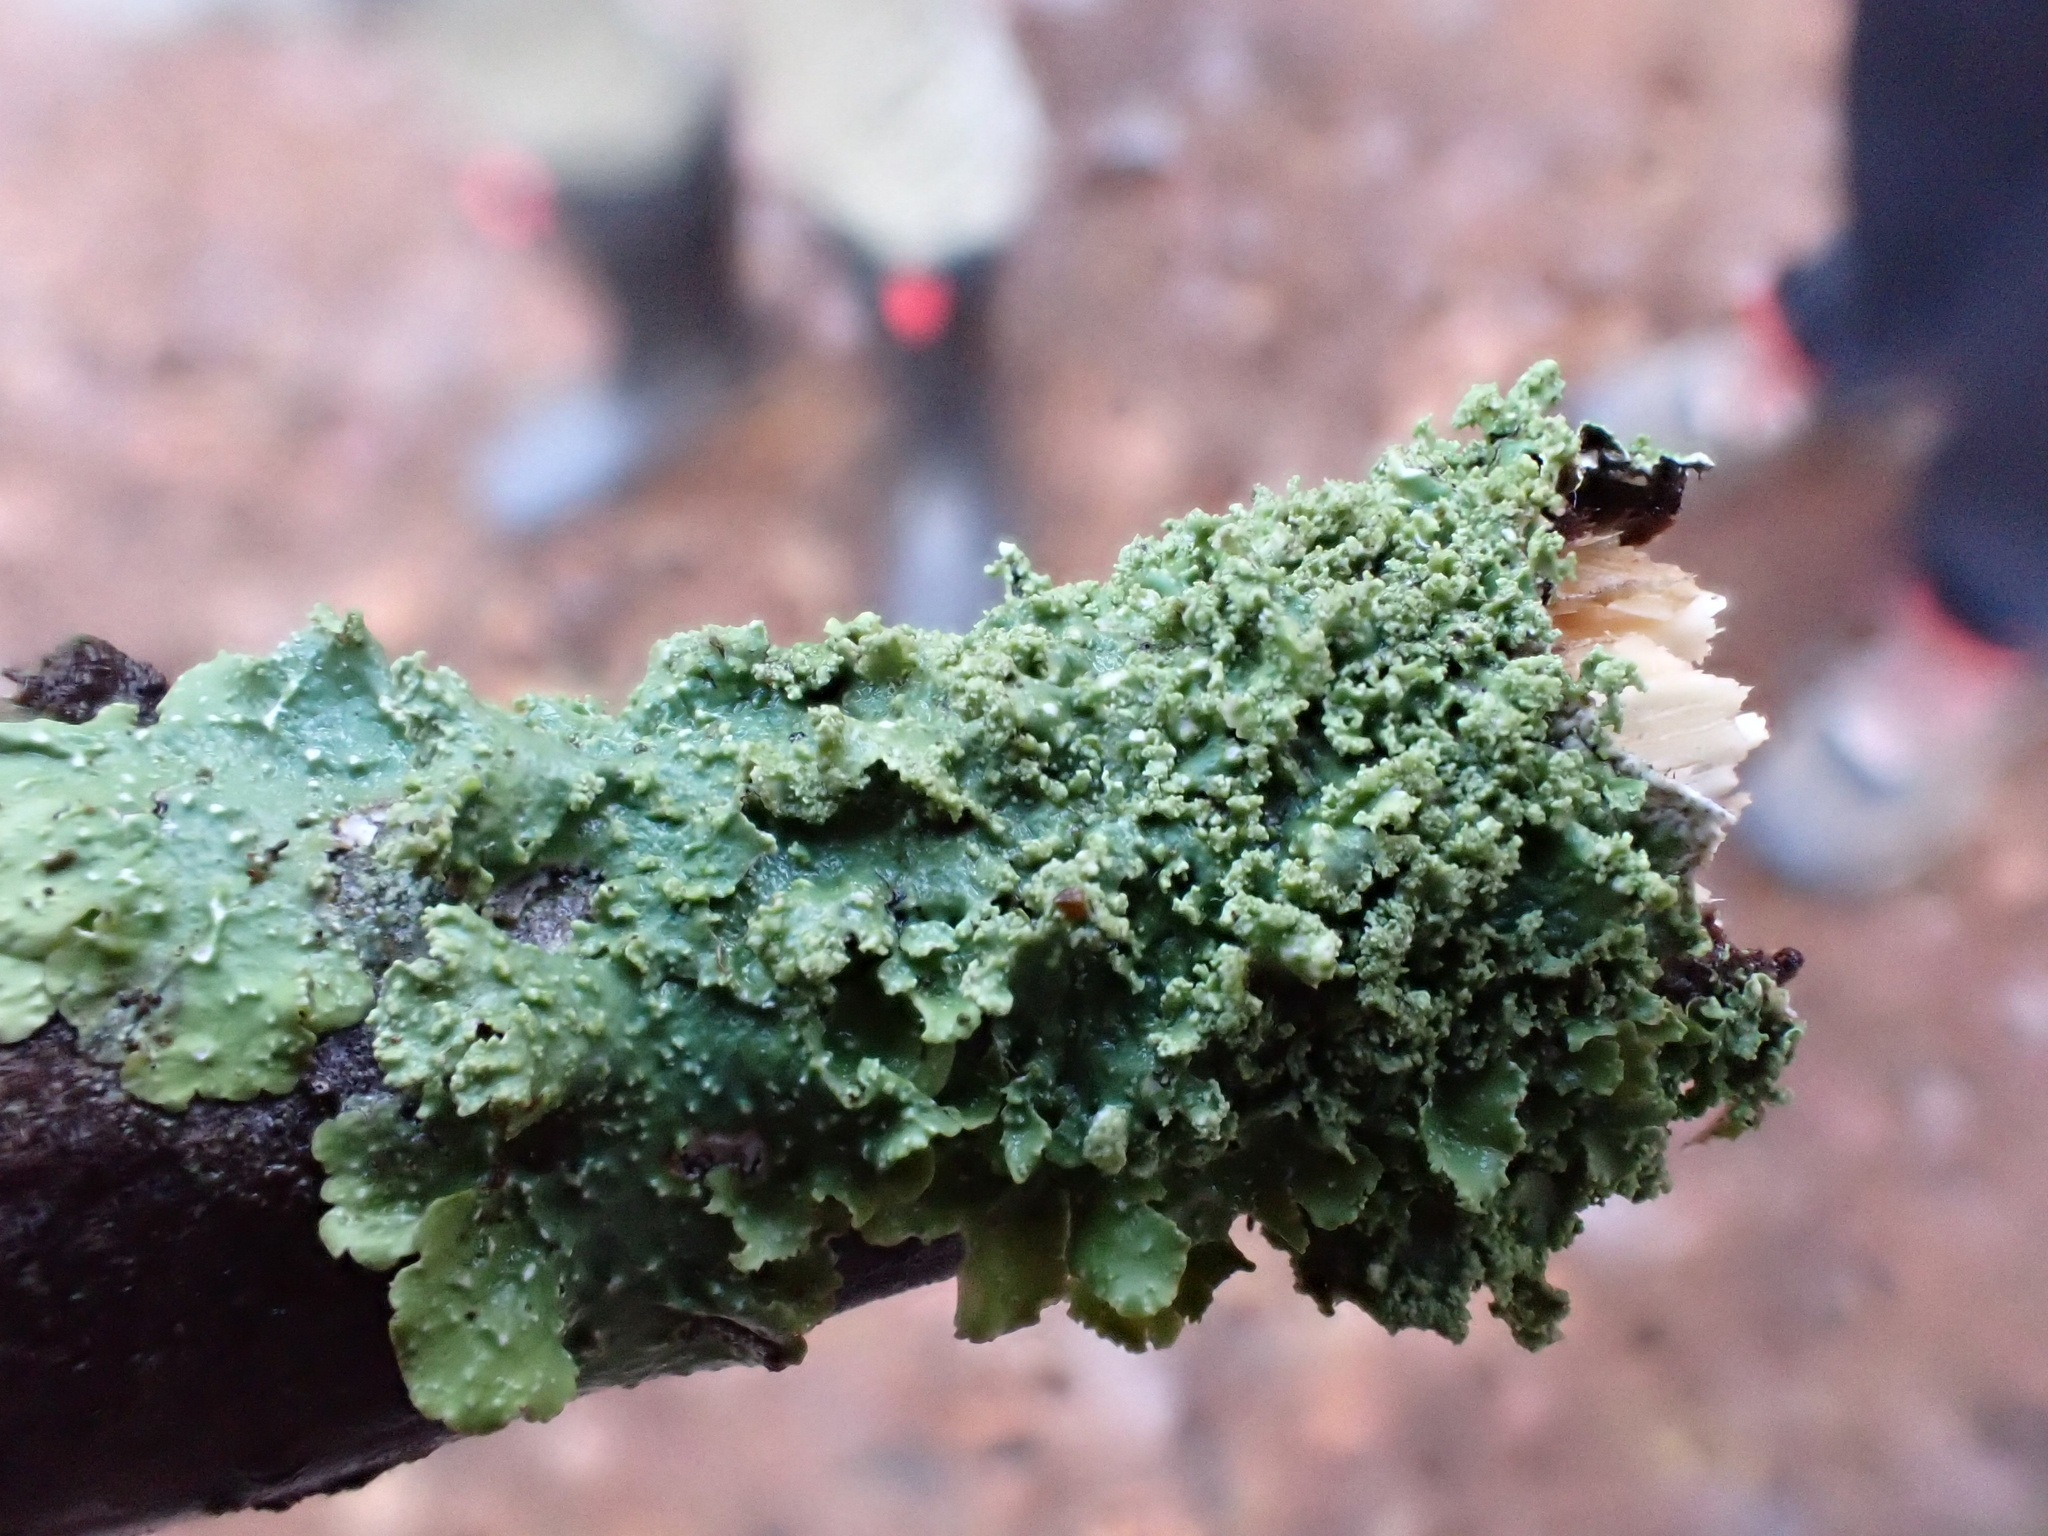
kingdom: Fungi
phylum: Ascomycota
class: Lecanoromycetes
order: Lecanorales
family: Parmeliaceae
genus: Punctelia
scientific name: Punctelia reddenda
